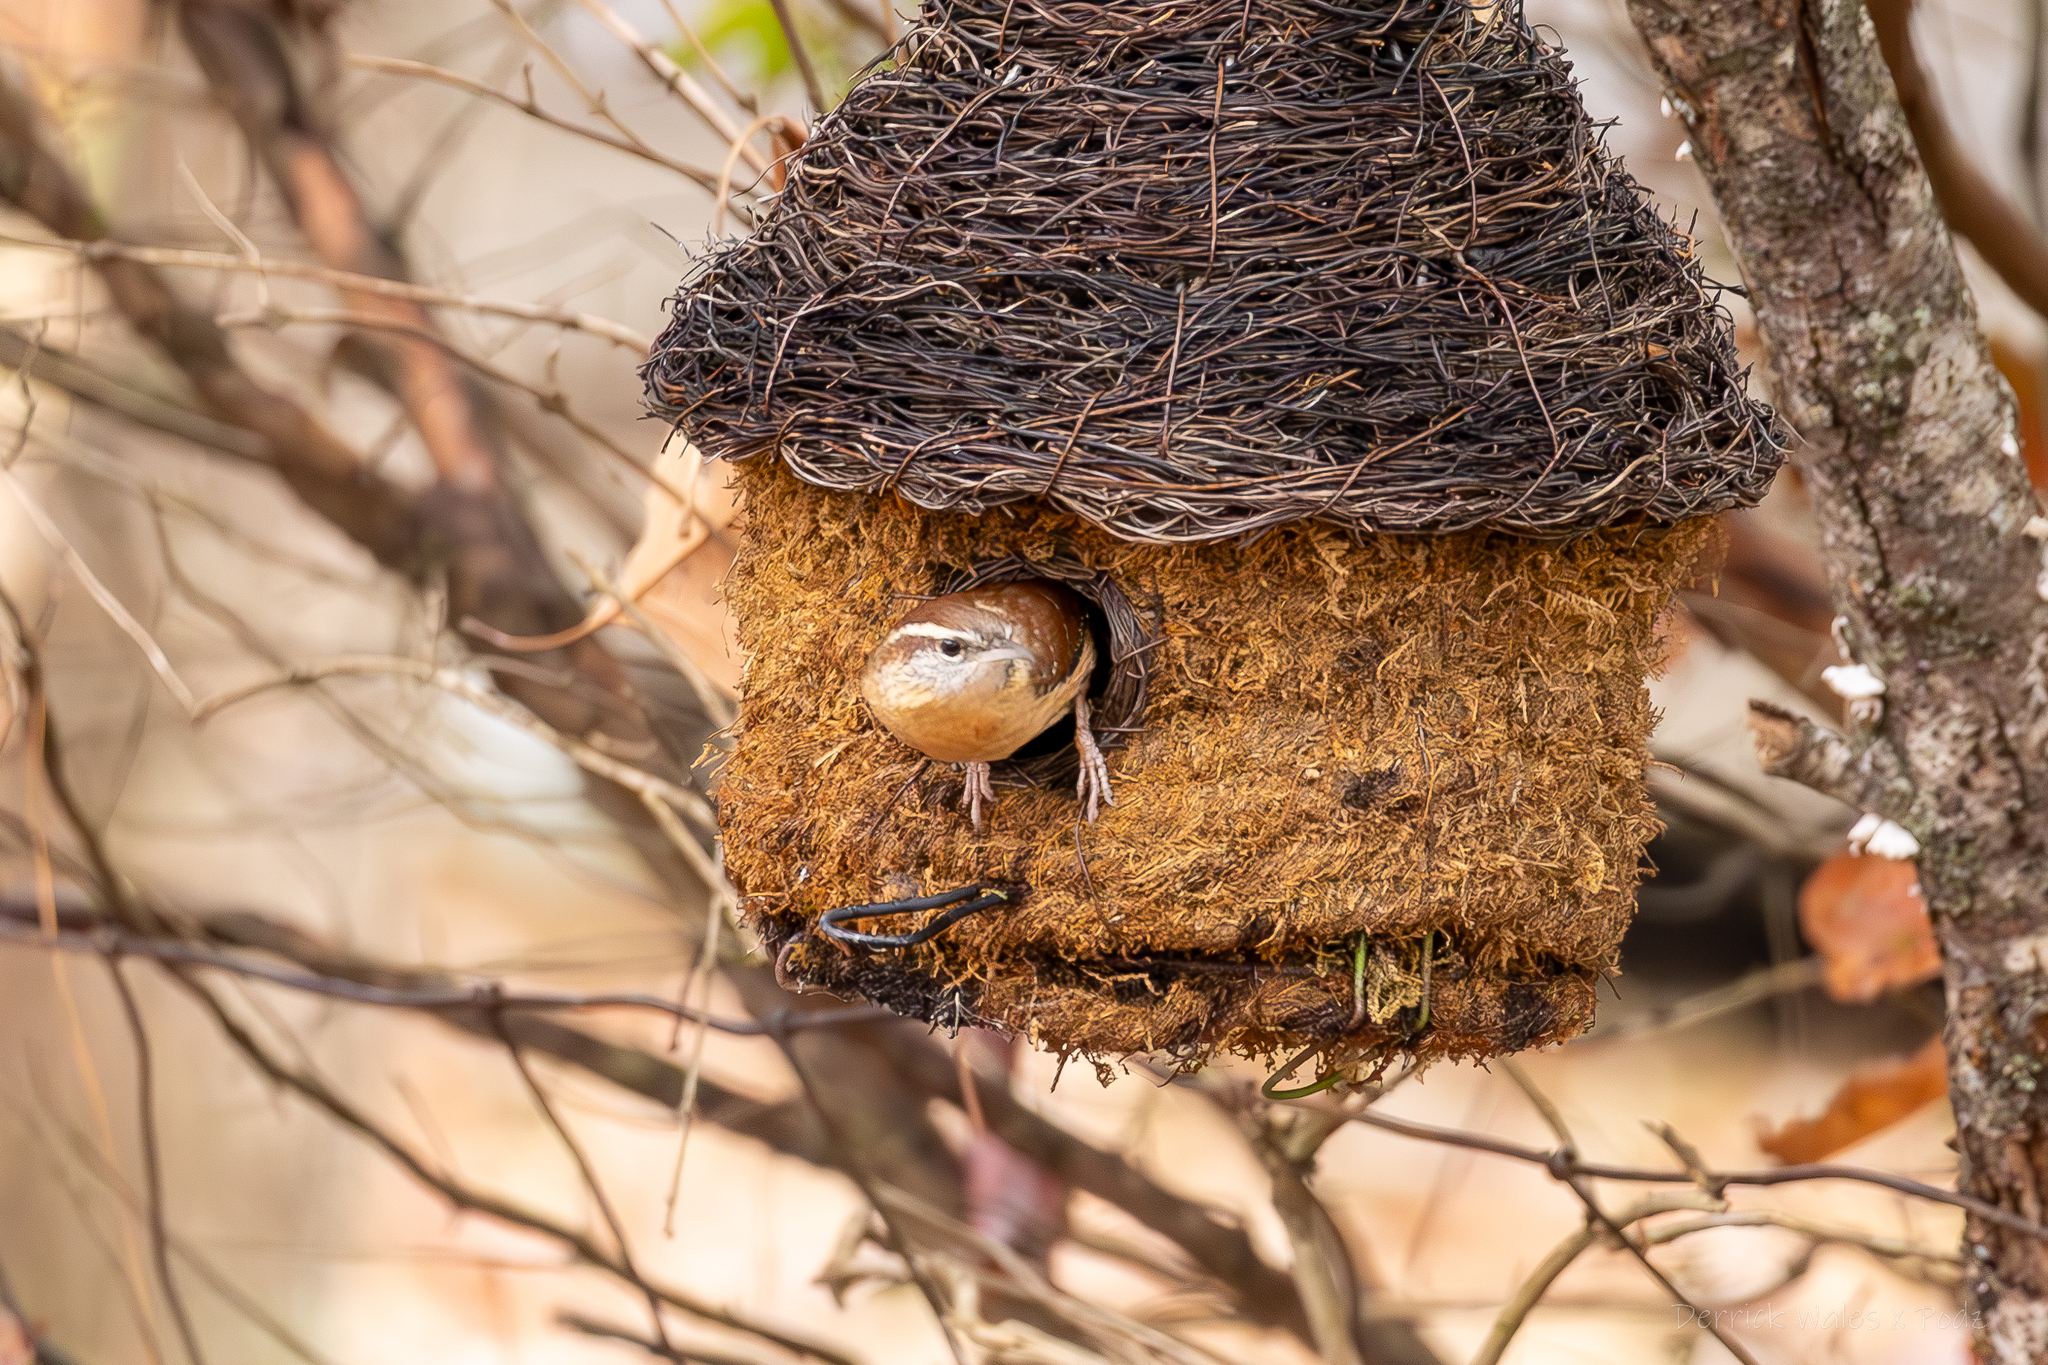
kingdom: Animalia
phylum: Chordata
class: Aves
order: Passeriformes
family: Troglodytidae
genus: Thryothorus
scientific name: Thryothorus ludovicianus
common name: Carolina wren
